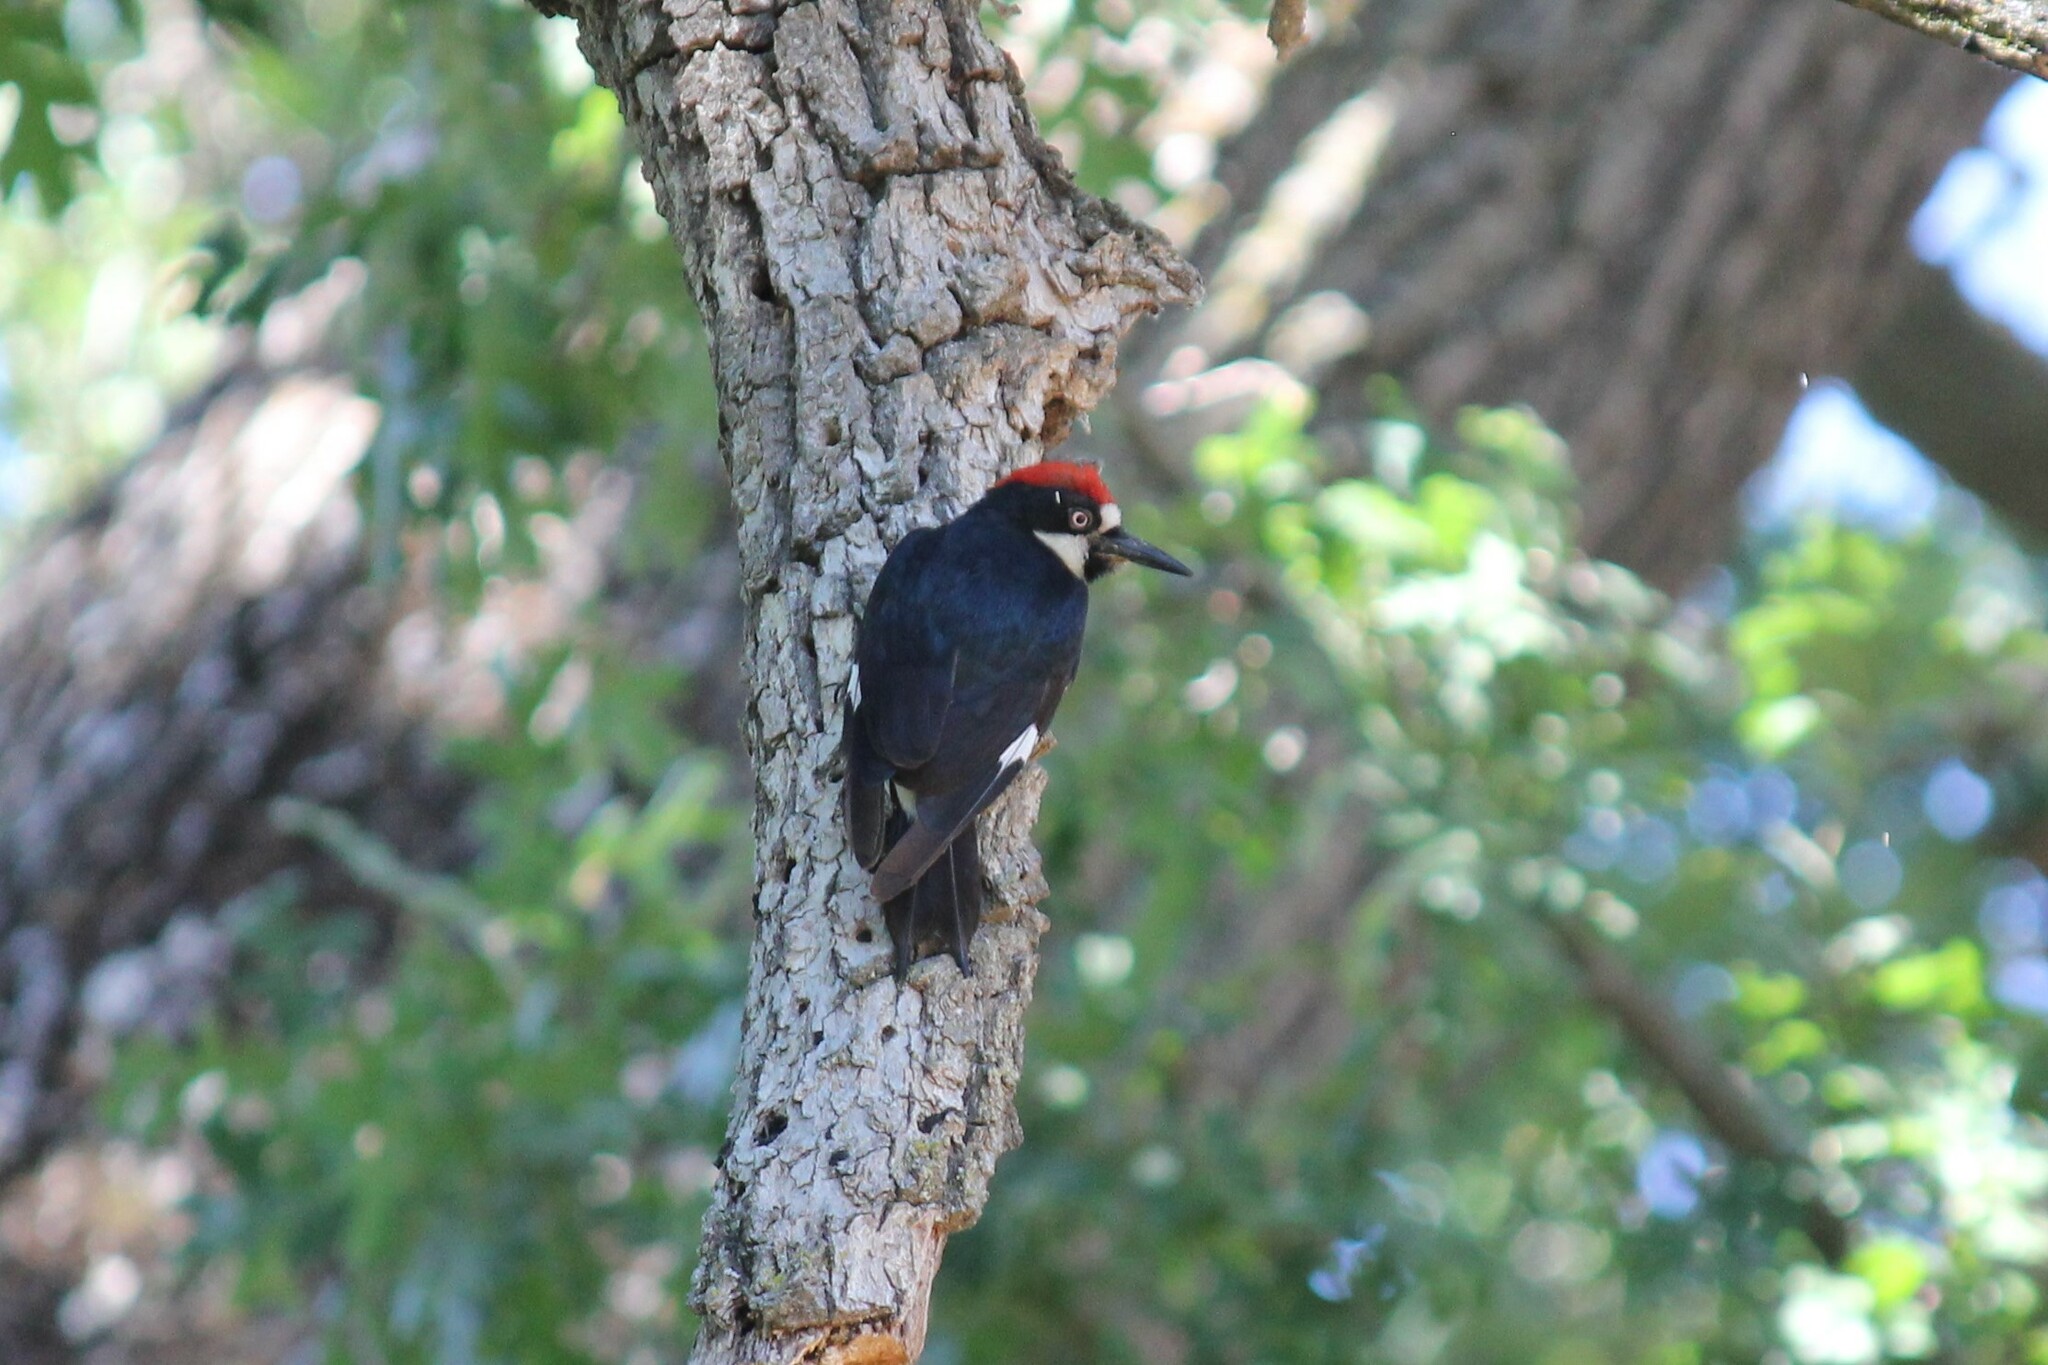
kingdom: Animalia
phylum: Chordata
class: Aves
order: Piciformes
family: Picidae
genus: Melanerpes
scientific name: Melanerpes formicivorus
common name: Acorn woodpecker
